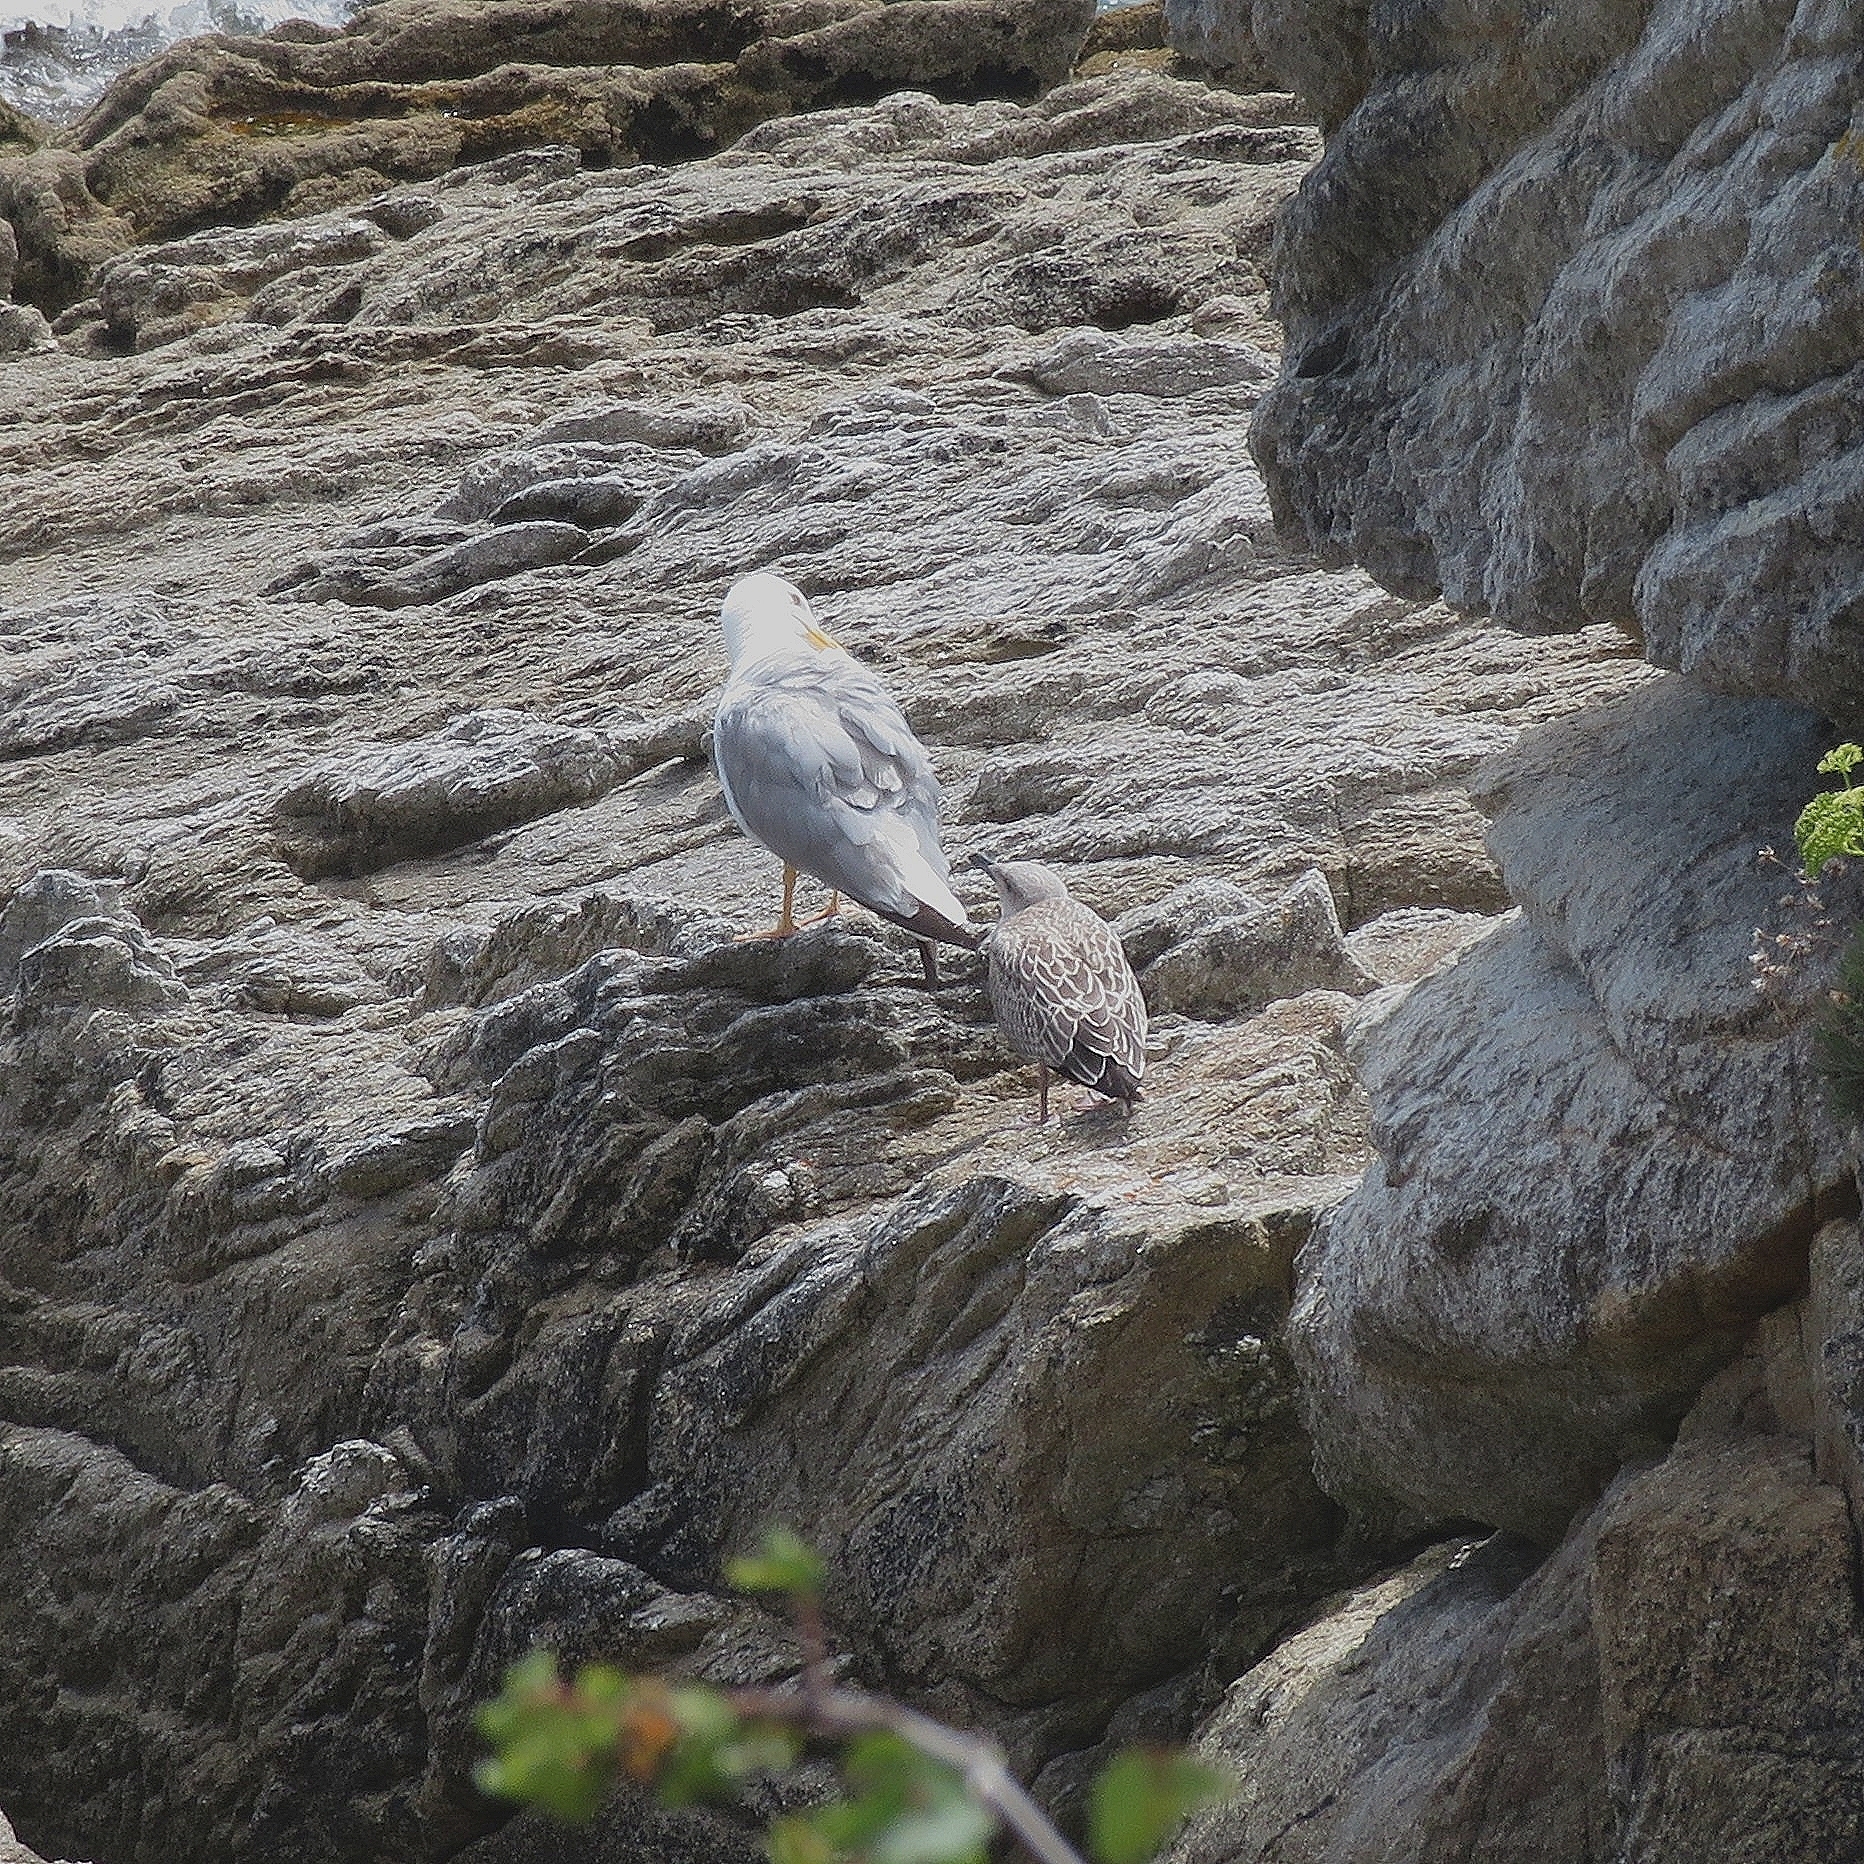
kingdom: Animalia
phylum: Chordata
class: Aves
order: Charadriiformes
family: Laridae
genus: Larus
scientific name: Larus michahellis
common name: Yellow-legged gull
